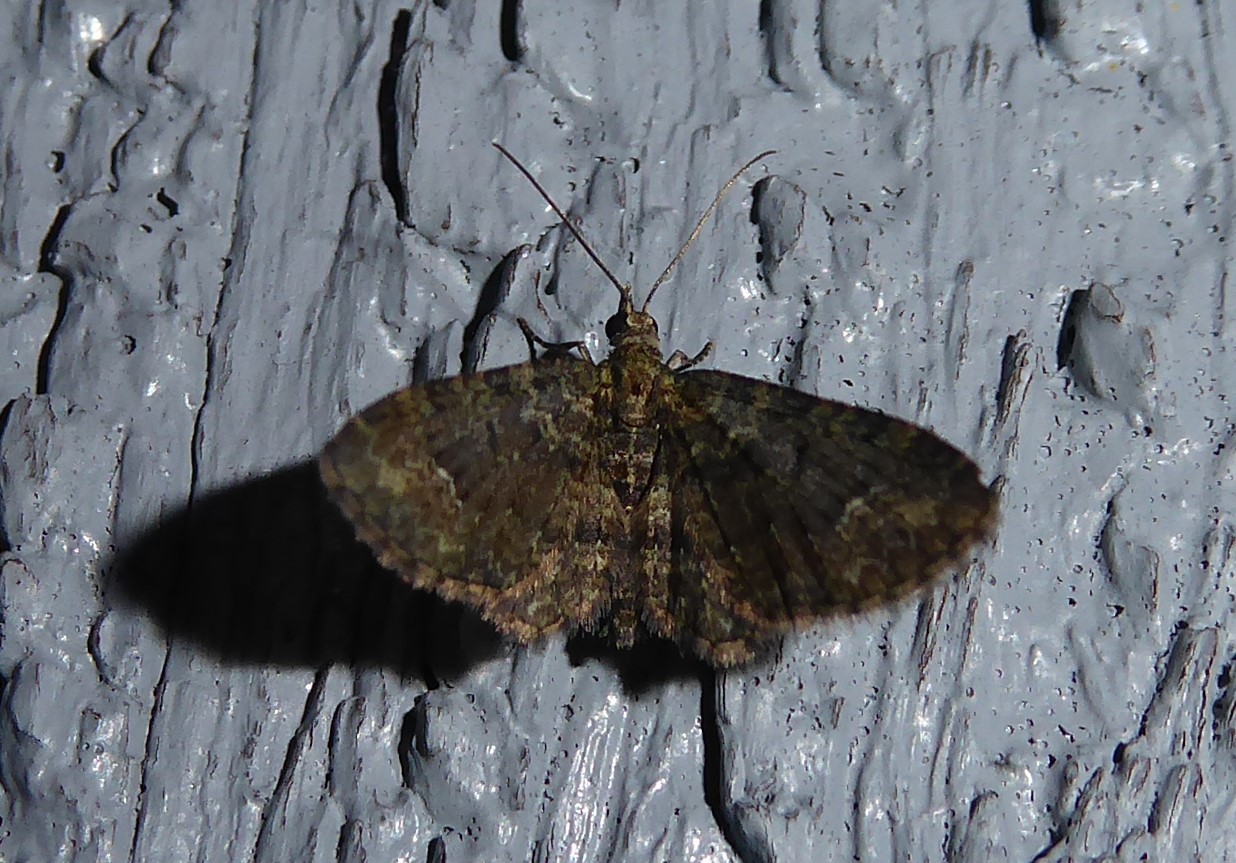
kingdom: Animalia
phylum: Arthropoda
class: Insecta
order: Lepidoptera
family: Geometridae
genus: Pasiphilodes
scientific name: Pasiphilodes testulata
